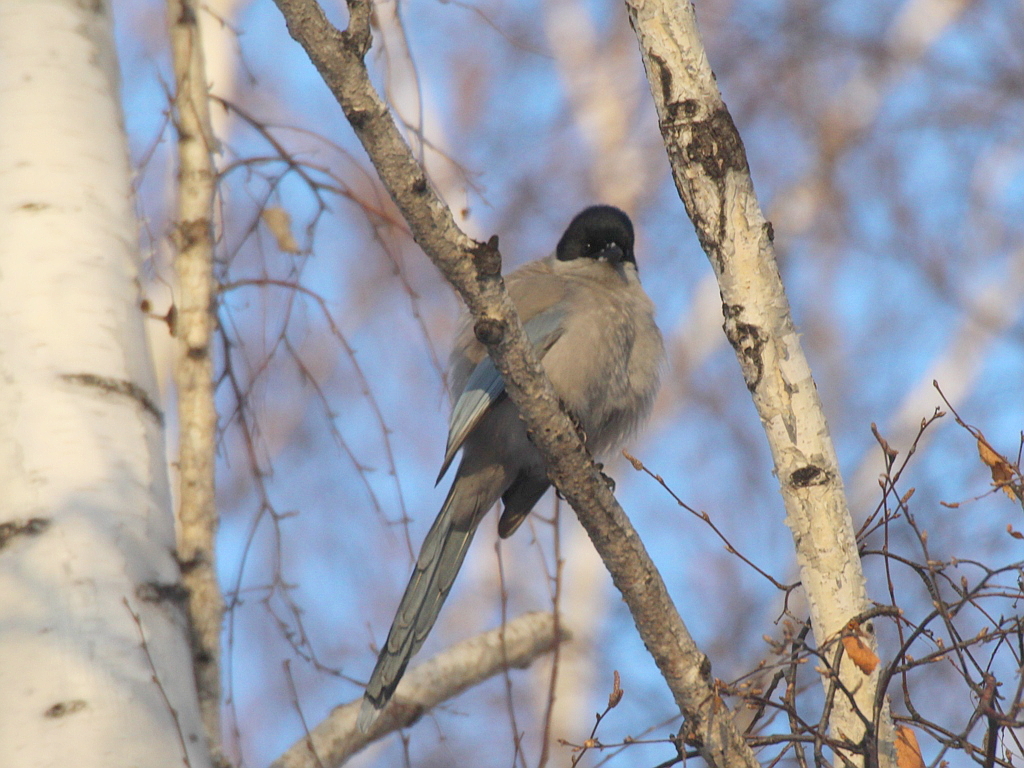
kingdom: Animalia
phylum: Chordata
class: Aves
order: Passeriformes
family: Corvidae
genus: Cyanopica
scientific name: Cyanopica cyanus
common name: Azure-winged magpie
